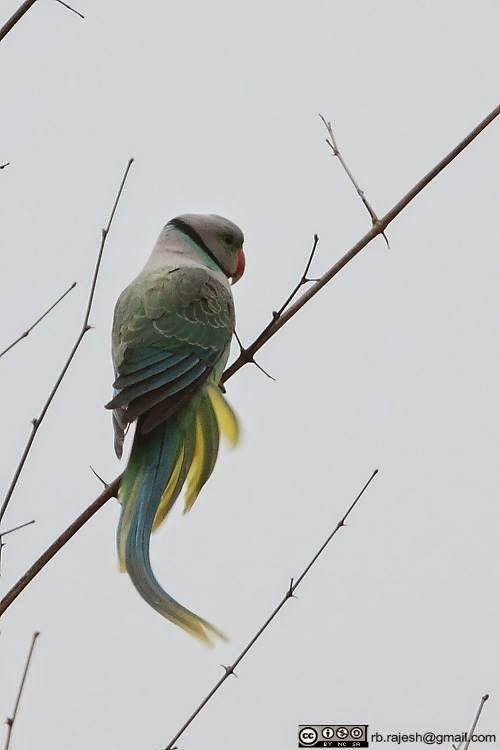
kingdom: Animalia
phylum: Chordata
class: Aves
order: Psittaciformes
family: Psittacidae
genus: Psittacula
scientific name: Psittacula columboides
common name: Blue-winged parakeet
